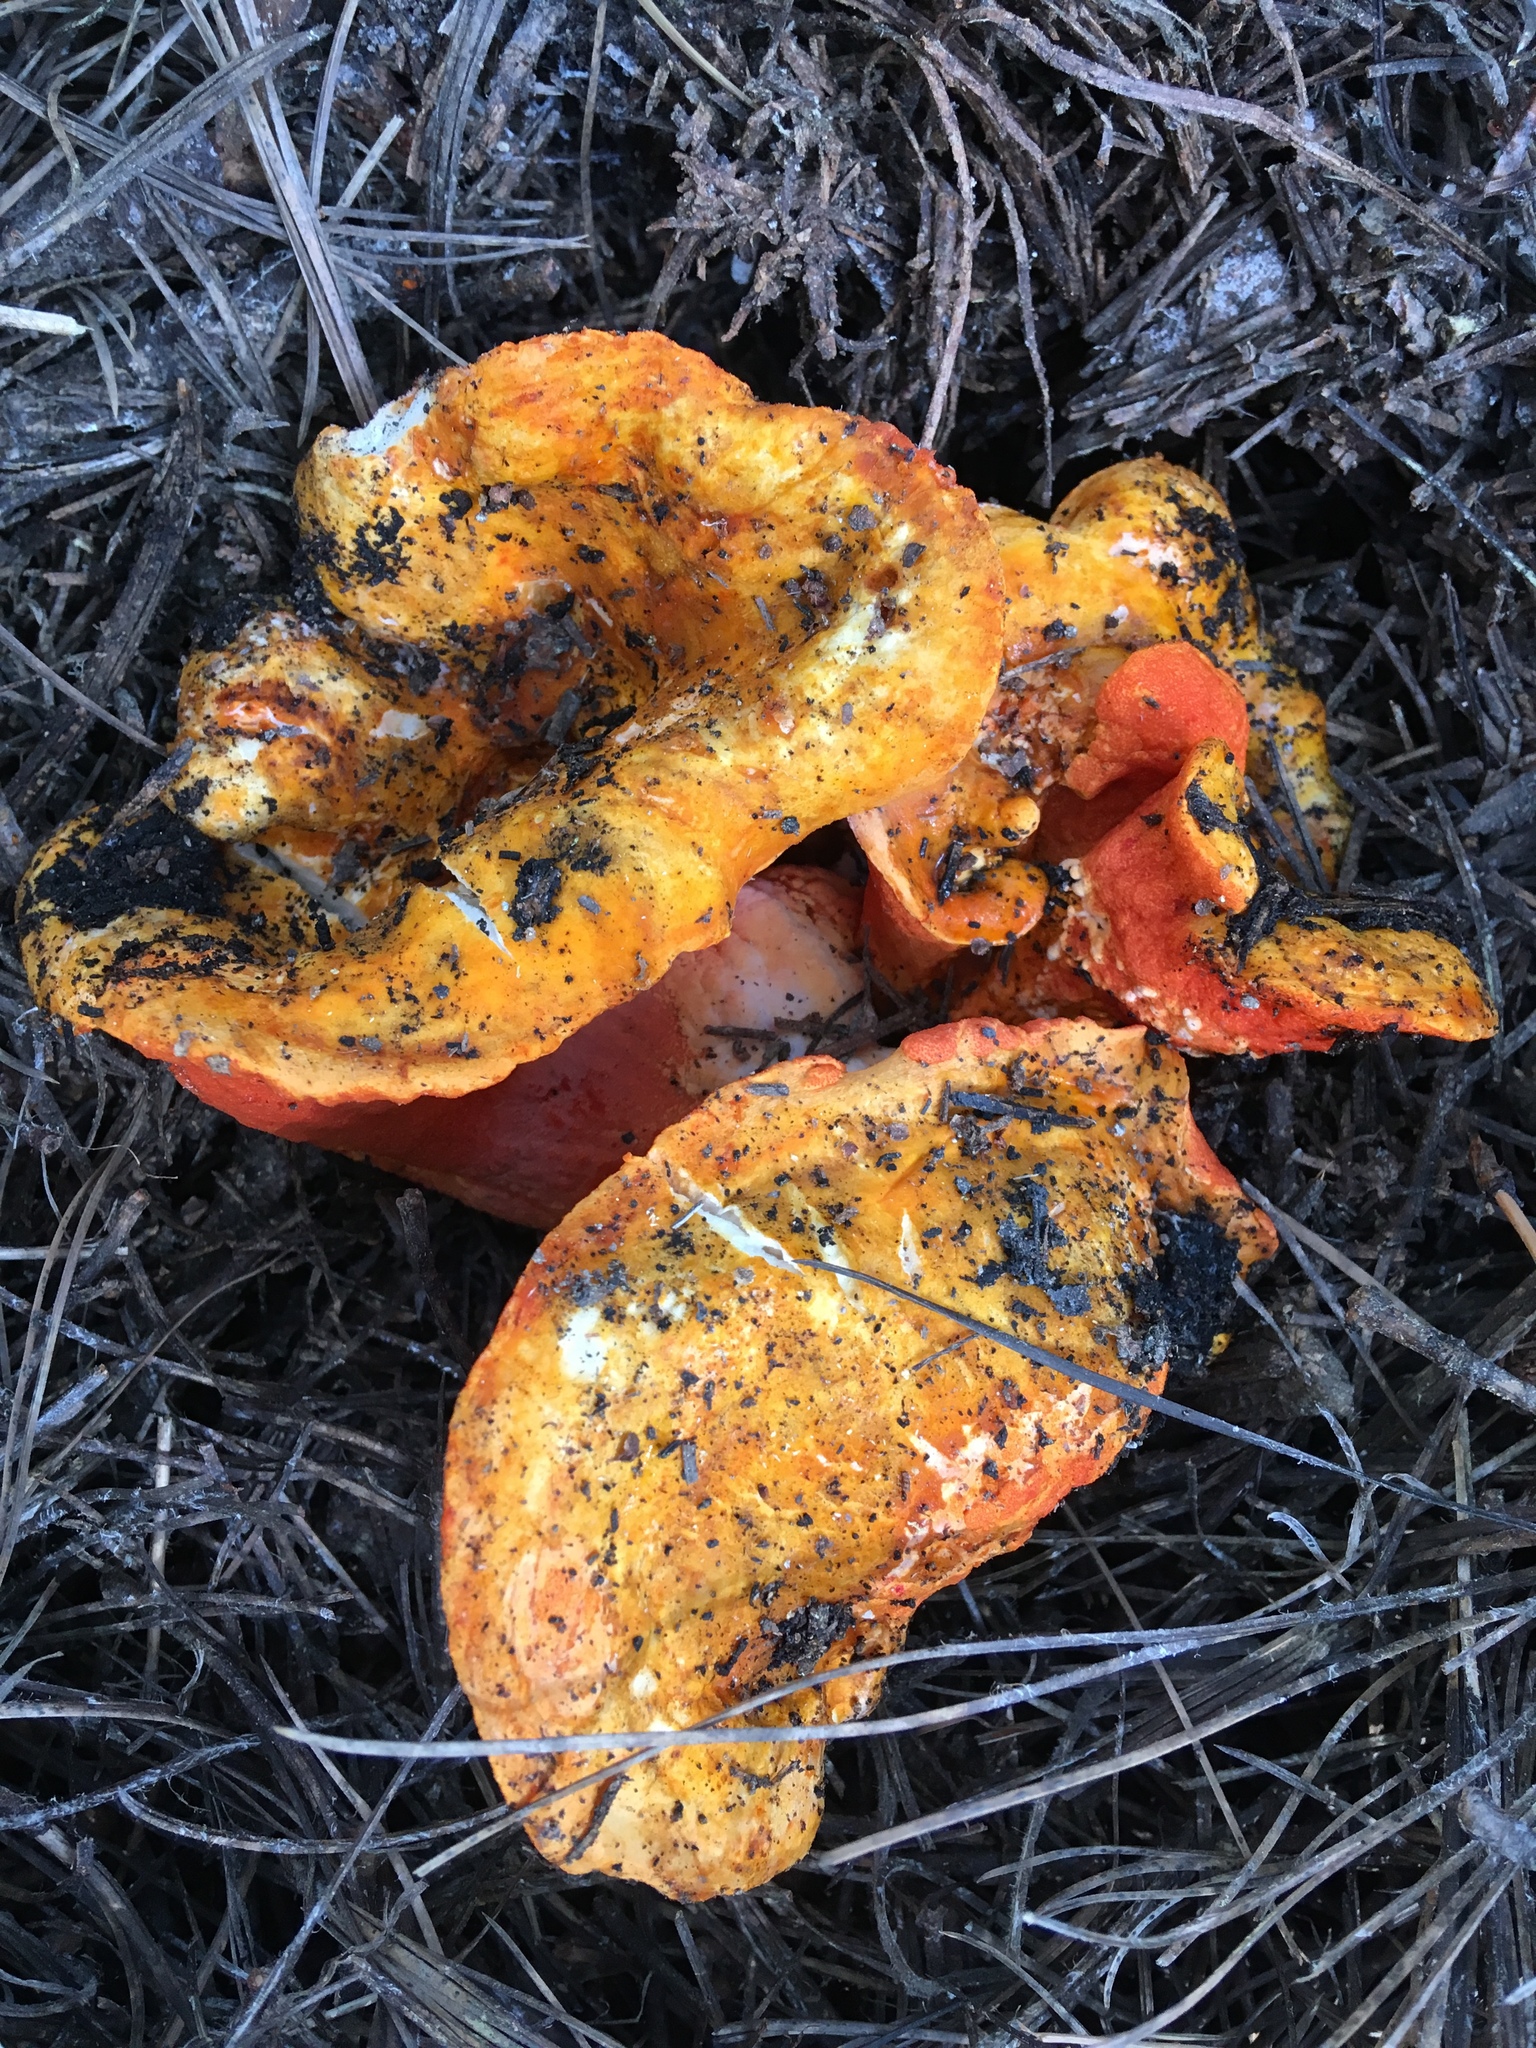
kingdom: Fungi
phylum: Ascomycota
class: Sordariomycetes
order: Hypocreales
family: Hypocreaceae
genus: Hypomyces
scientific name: Hypomyces lactifluorum
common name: Lobster mushroom
